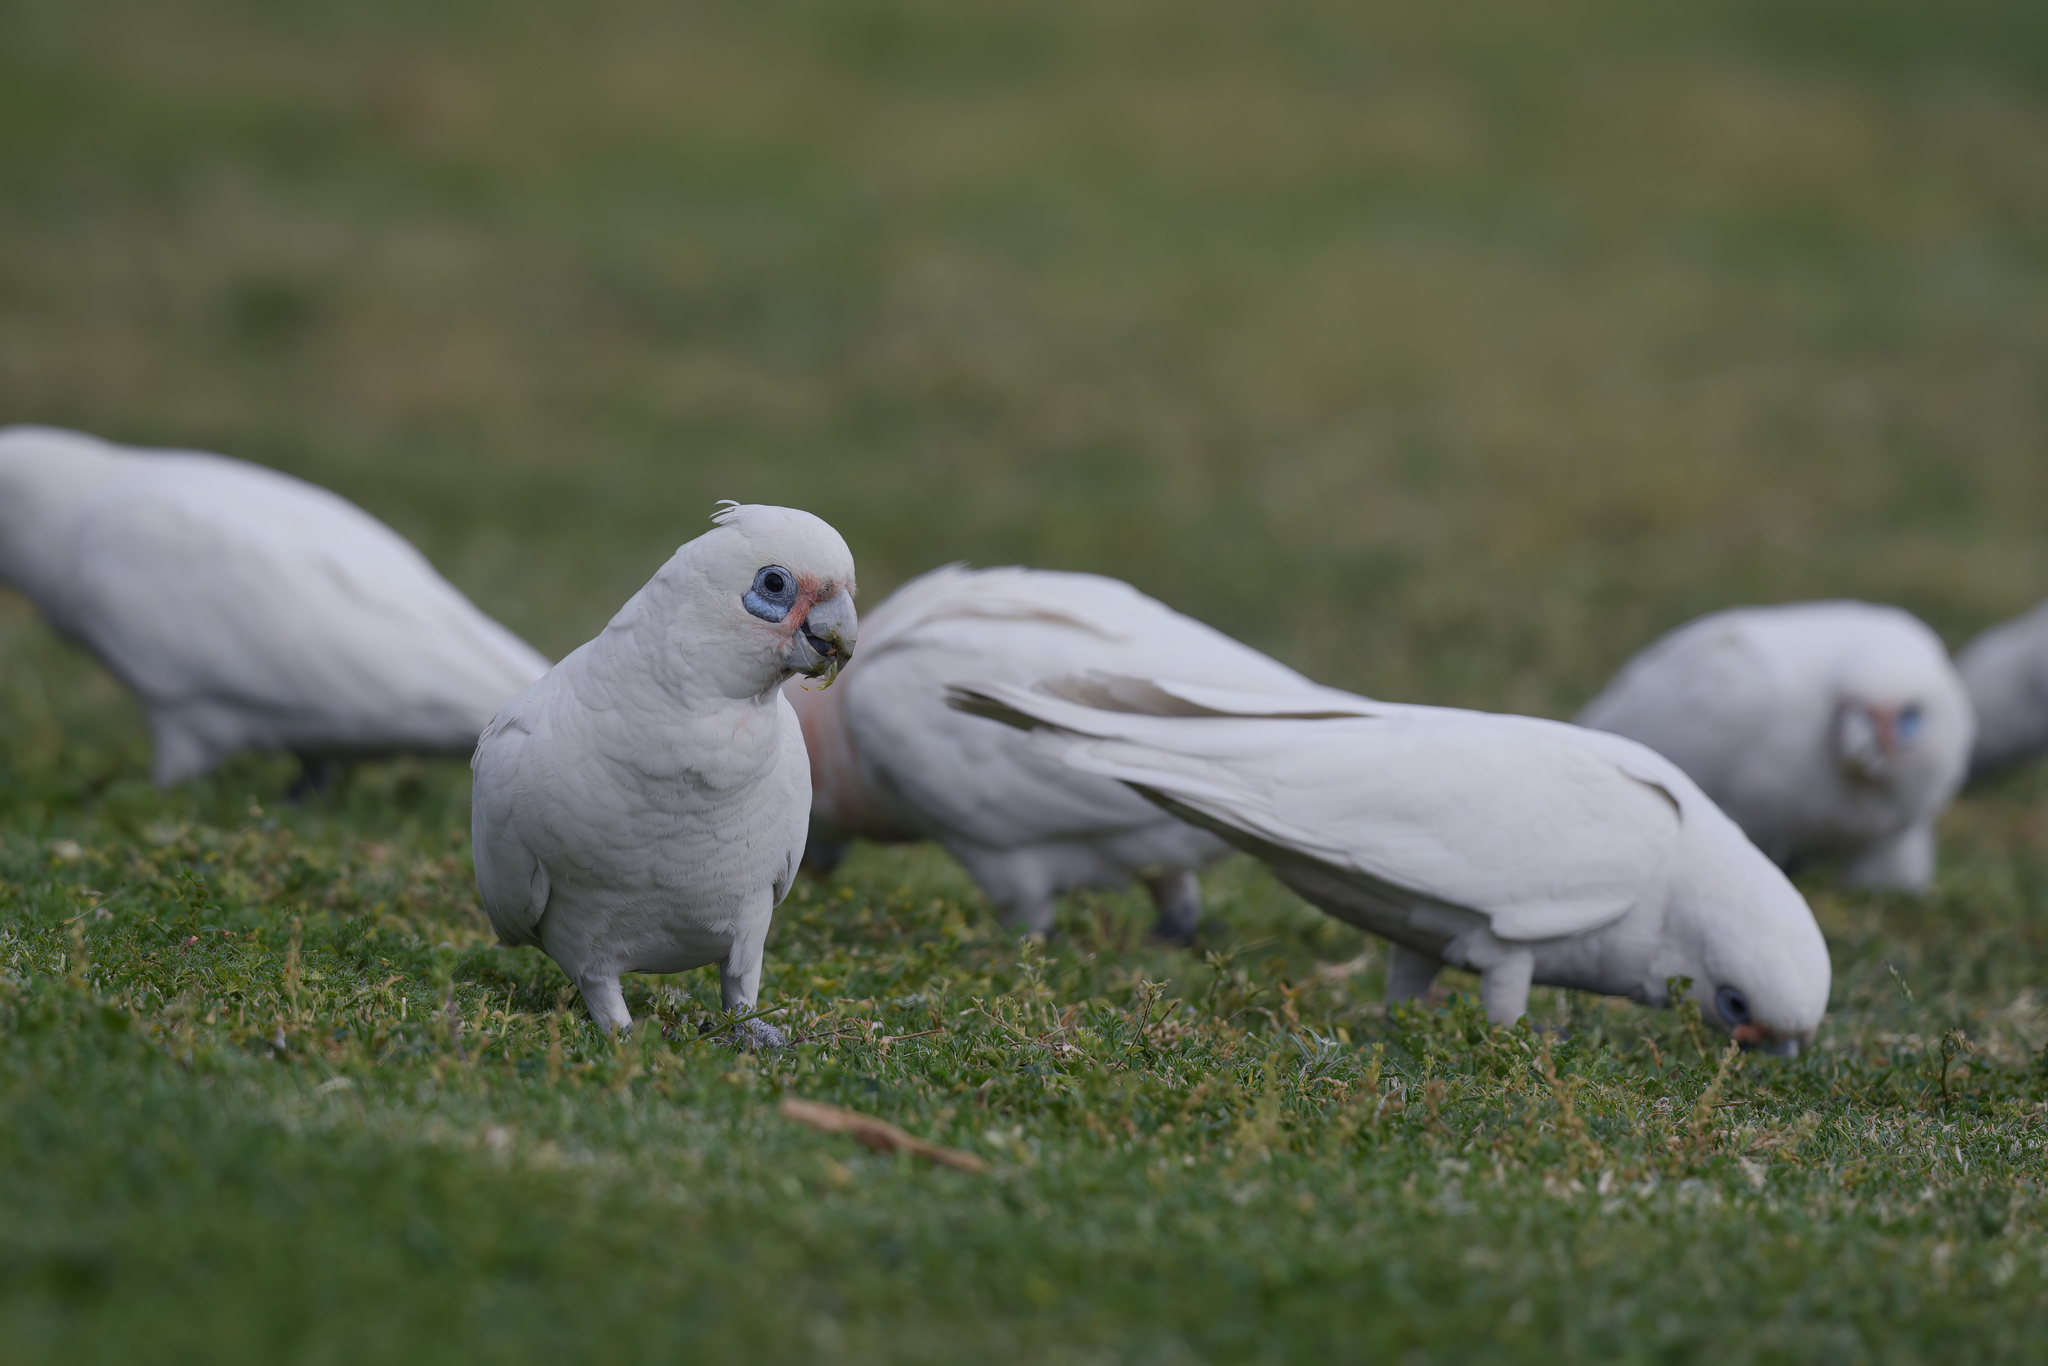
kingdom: Animalia
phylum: Chordata
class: Aves
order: Psittaciformes
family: Psittacidae
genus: Cacatua
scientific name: Cacatua sanguinea
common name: Little corella
